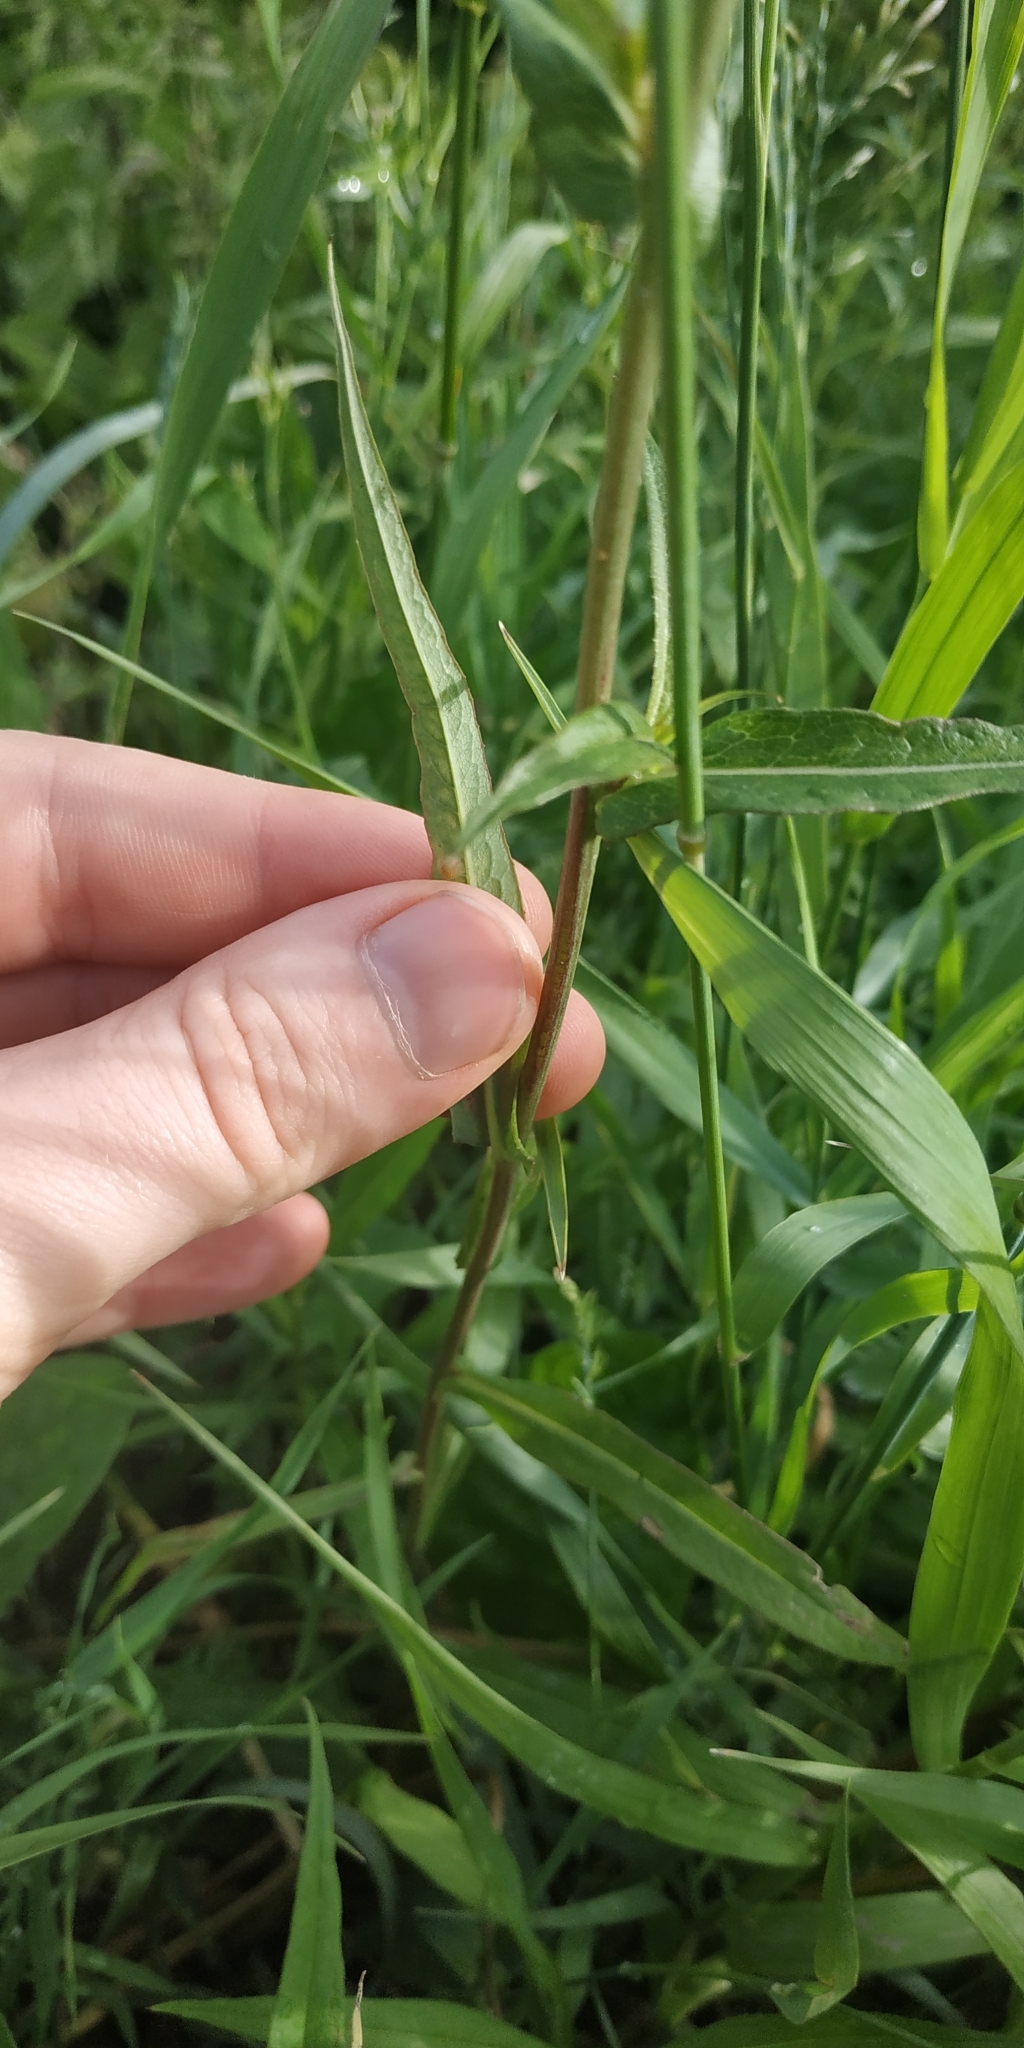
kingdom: Plantae
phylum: Tracheophyta
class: Magnoliopsida
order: Asterales
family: Asteraceae
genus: Lactuca
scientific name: Lactuca sibirica
